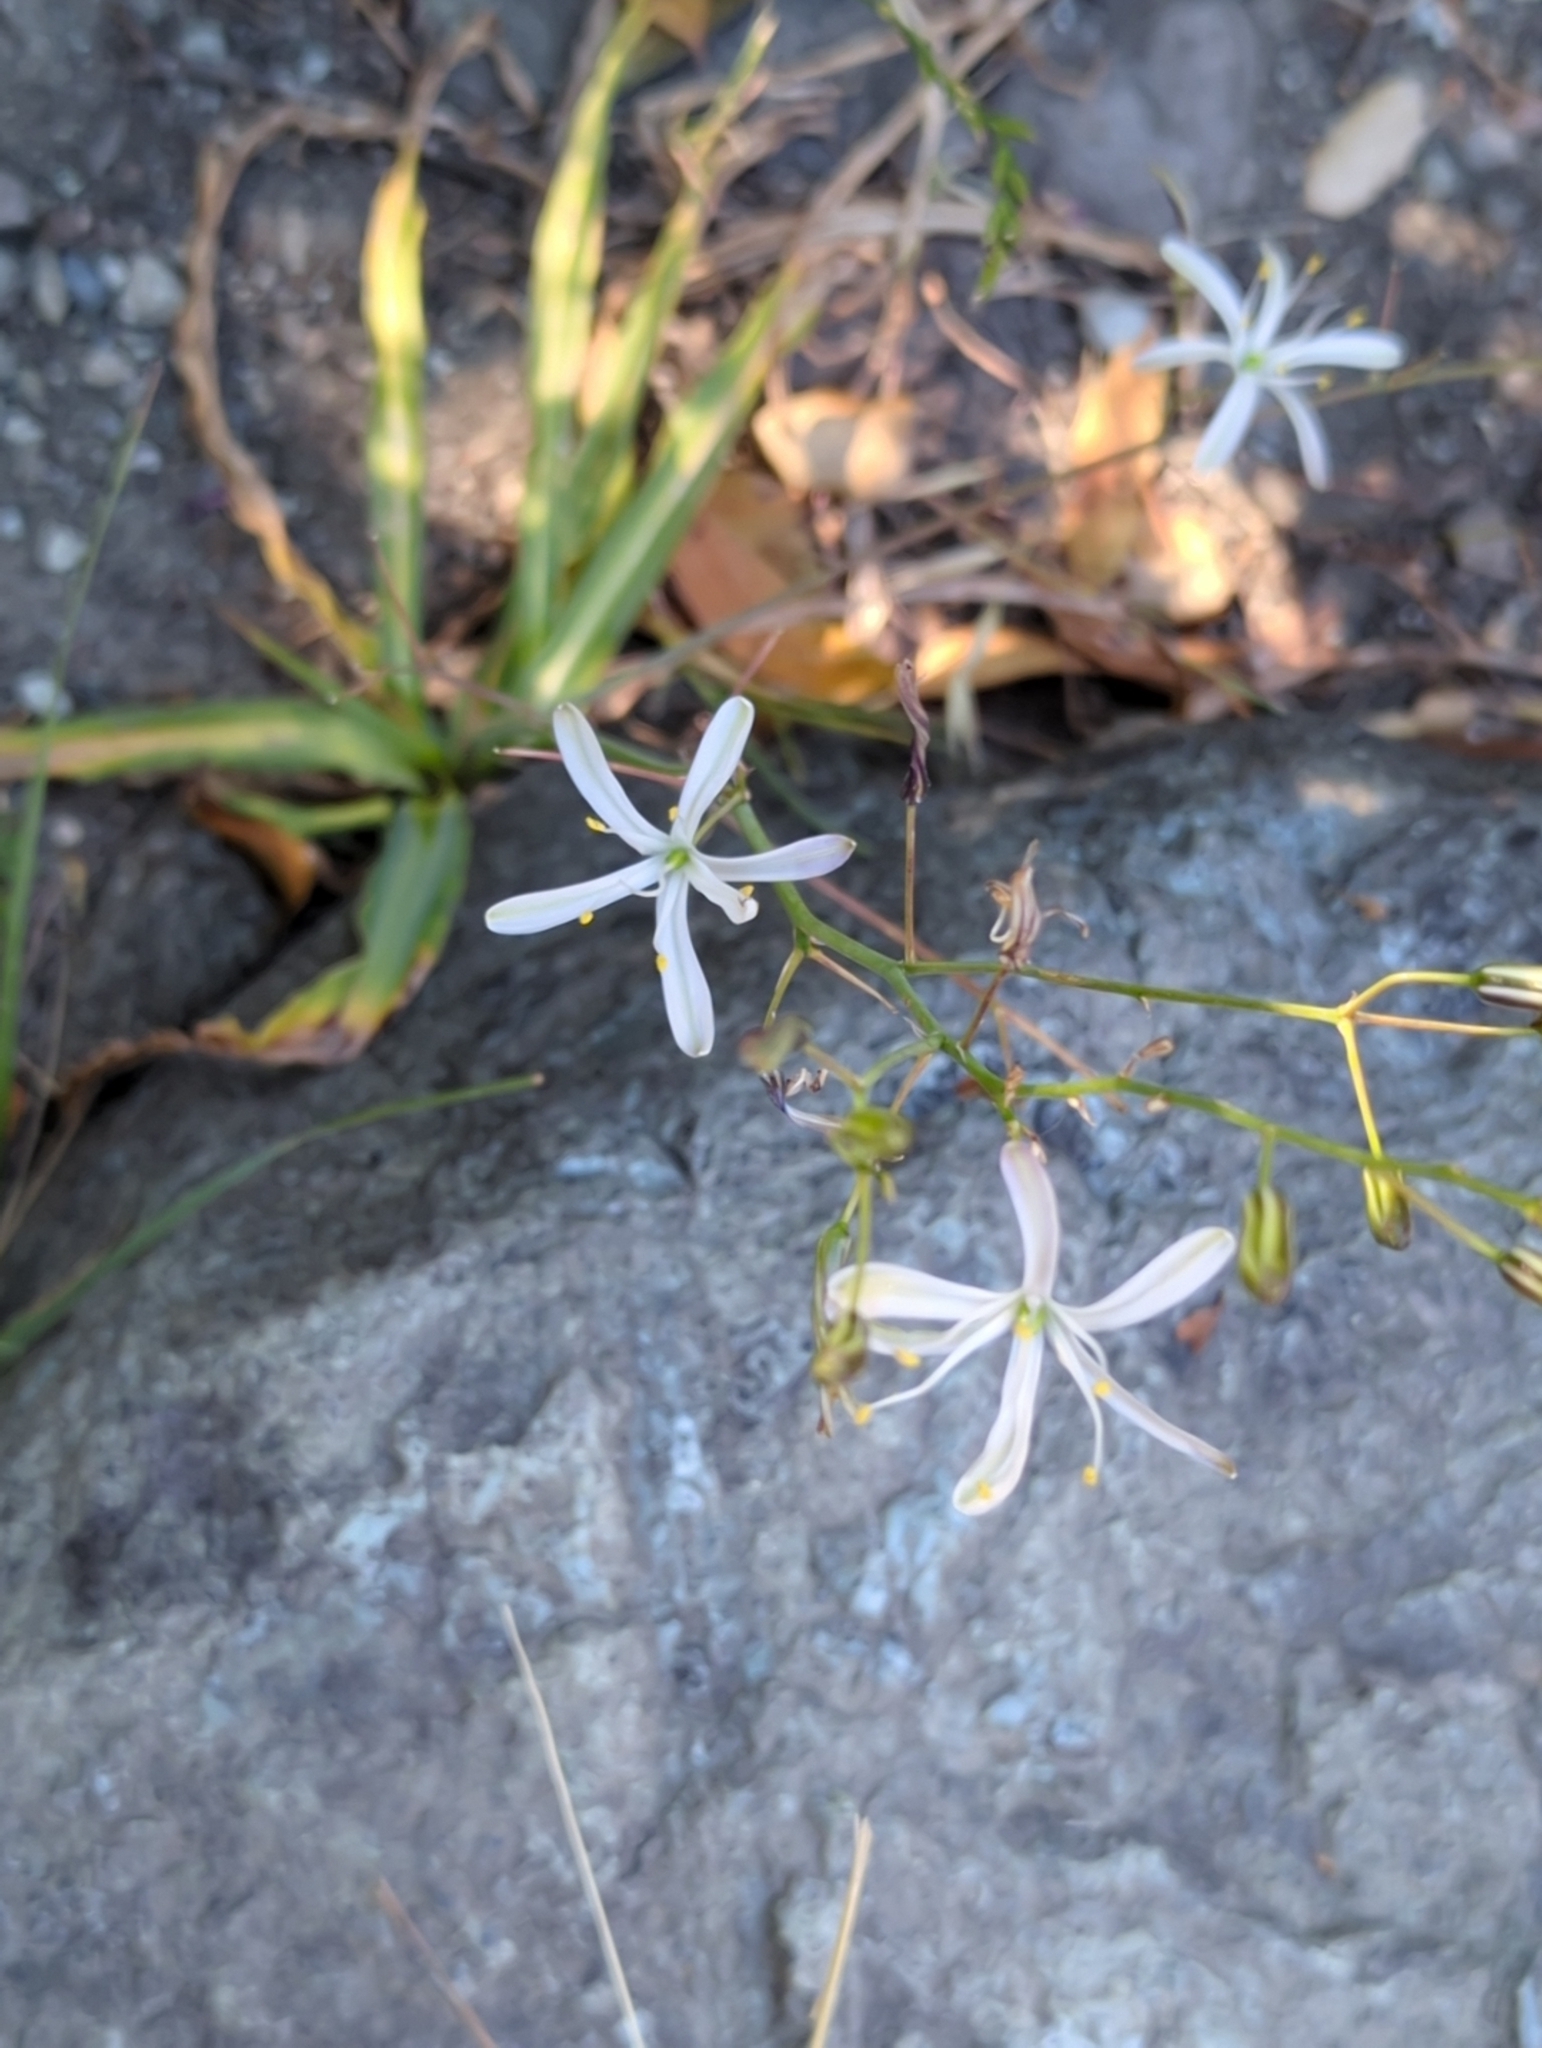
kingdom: Plantae
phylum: Tracheophyta
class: Liliopsida
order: Asparagales
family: Asparagaceae
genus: Chlorogalum
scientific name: Chlorogalum pomeridianum
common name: Amole
